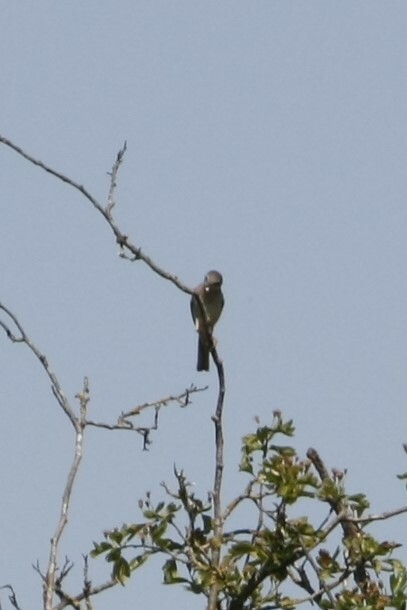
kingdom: Animalia
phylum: Chordata
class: Aves
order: Passeriformes
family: Sylviidae
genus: Sylvia
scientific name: Sylvia communis
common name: Common whitethroat
